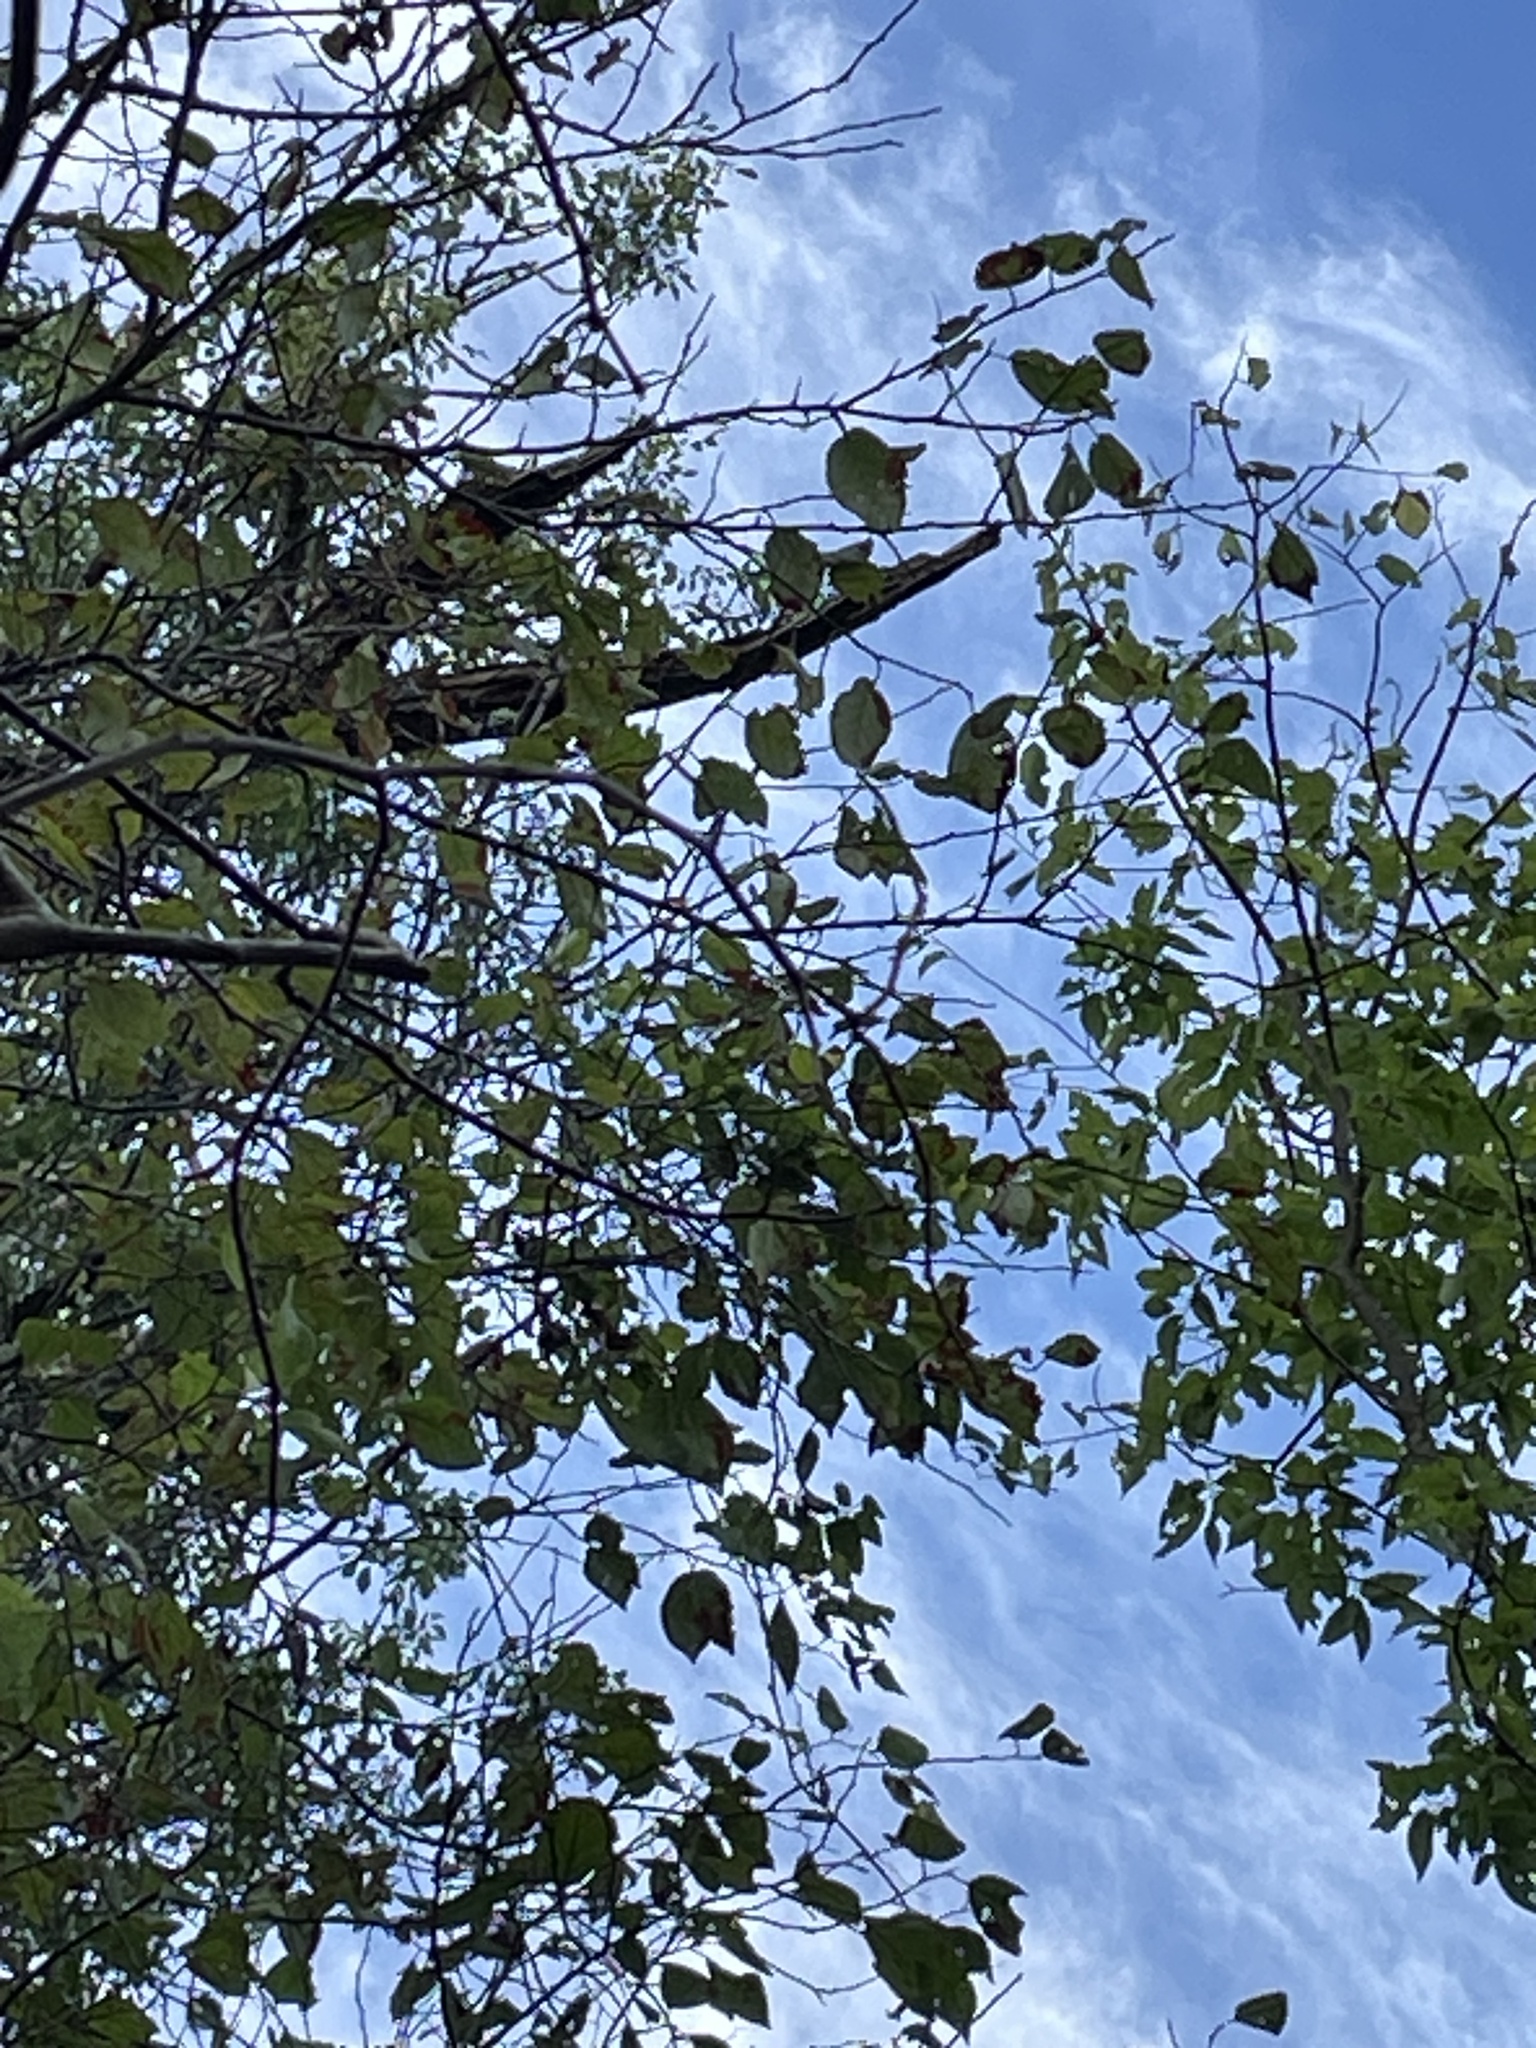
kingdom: Plantae
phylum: Tracheophyta
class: Magnoliopsida
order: Rosales
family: Rosaceae
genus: Prunus
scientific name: Prunus mexicana
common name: Mexican plum
